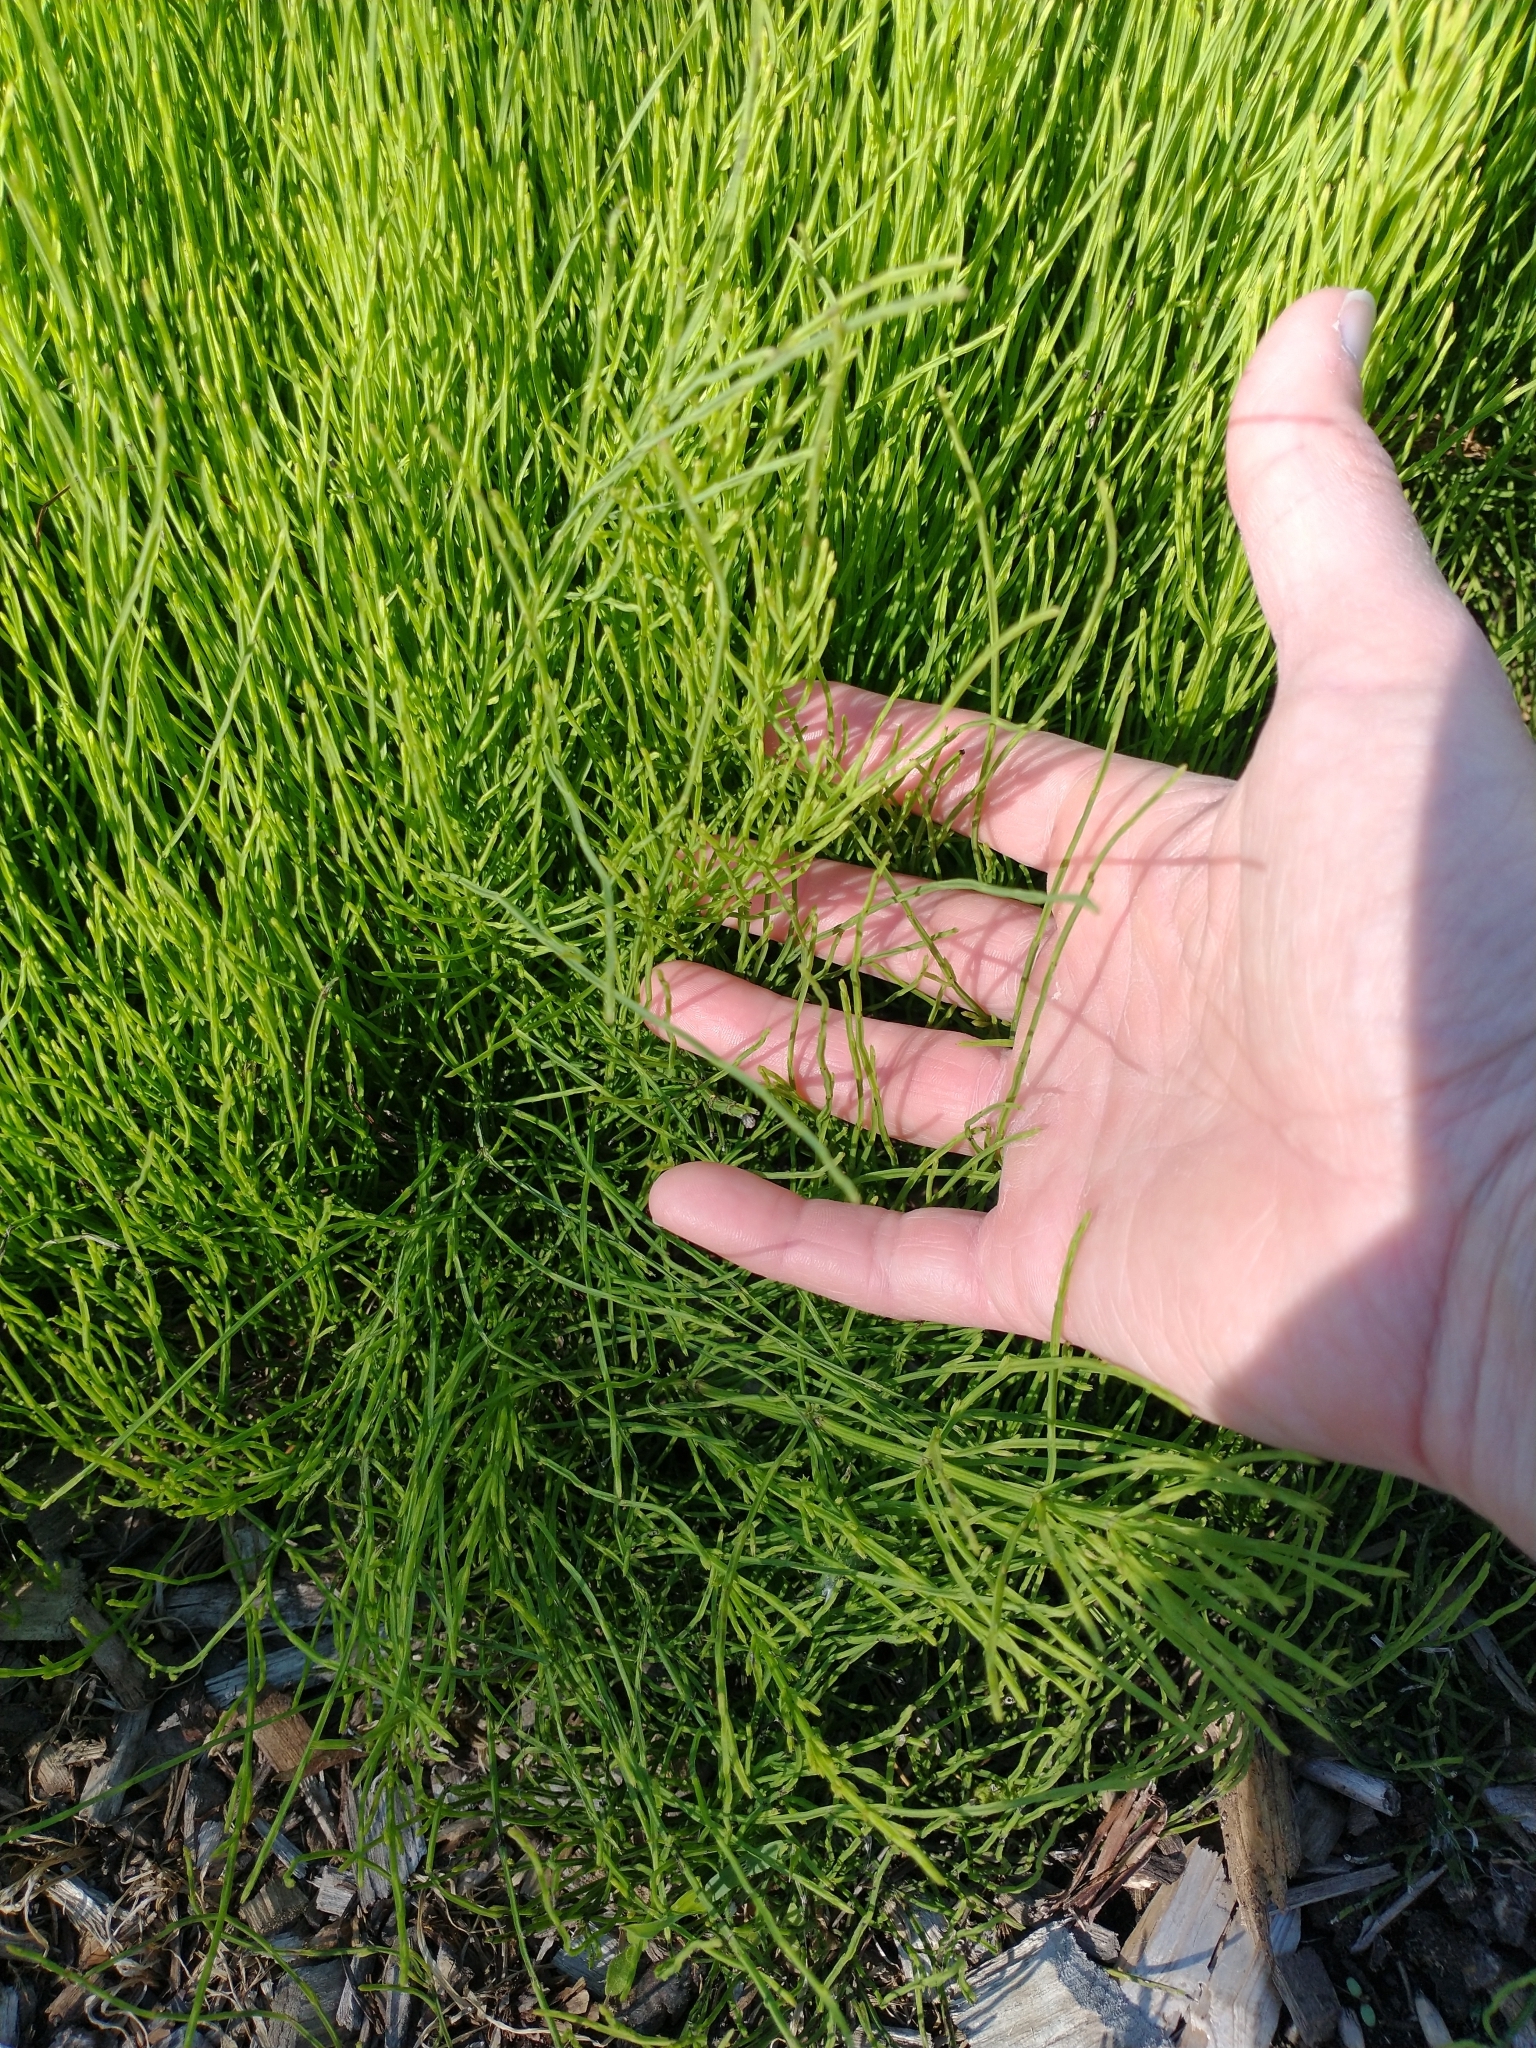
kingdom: Plantae
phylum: Tracheophyta
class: Polypodiopsida
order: Equisetales
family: Equisetaceae
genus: Equisetum
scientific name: Equisetum arvense
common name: Field horsetail
